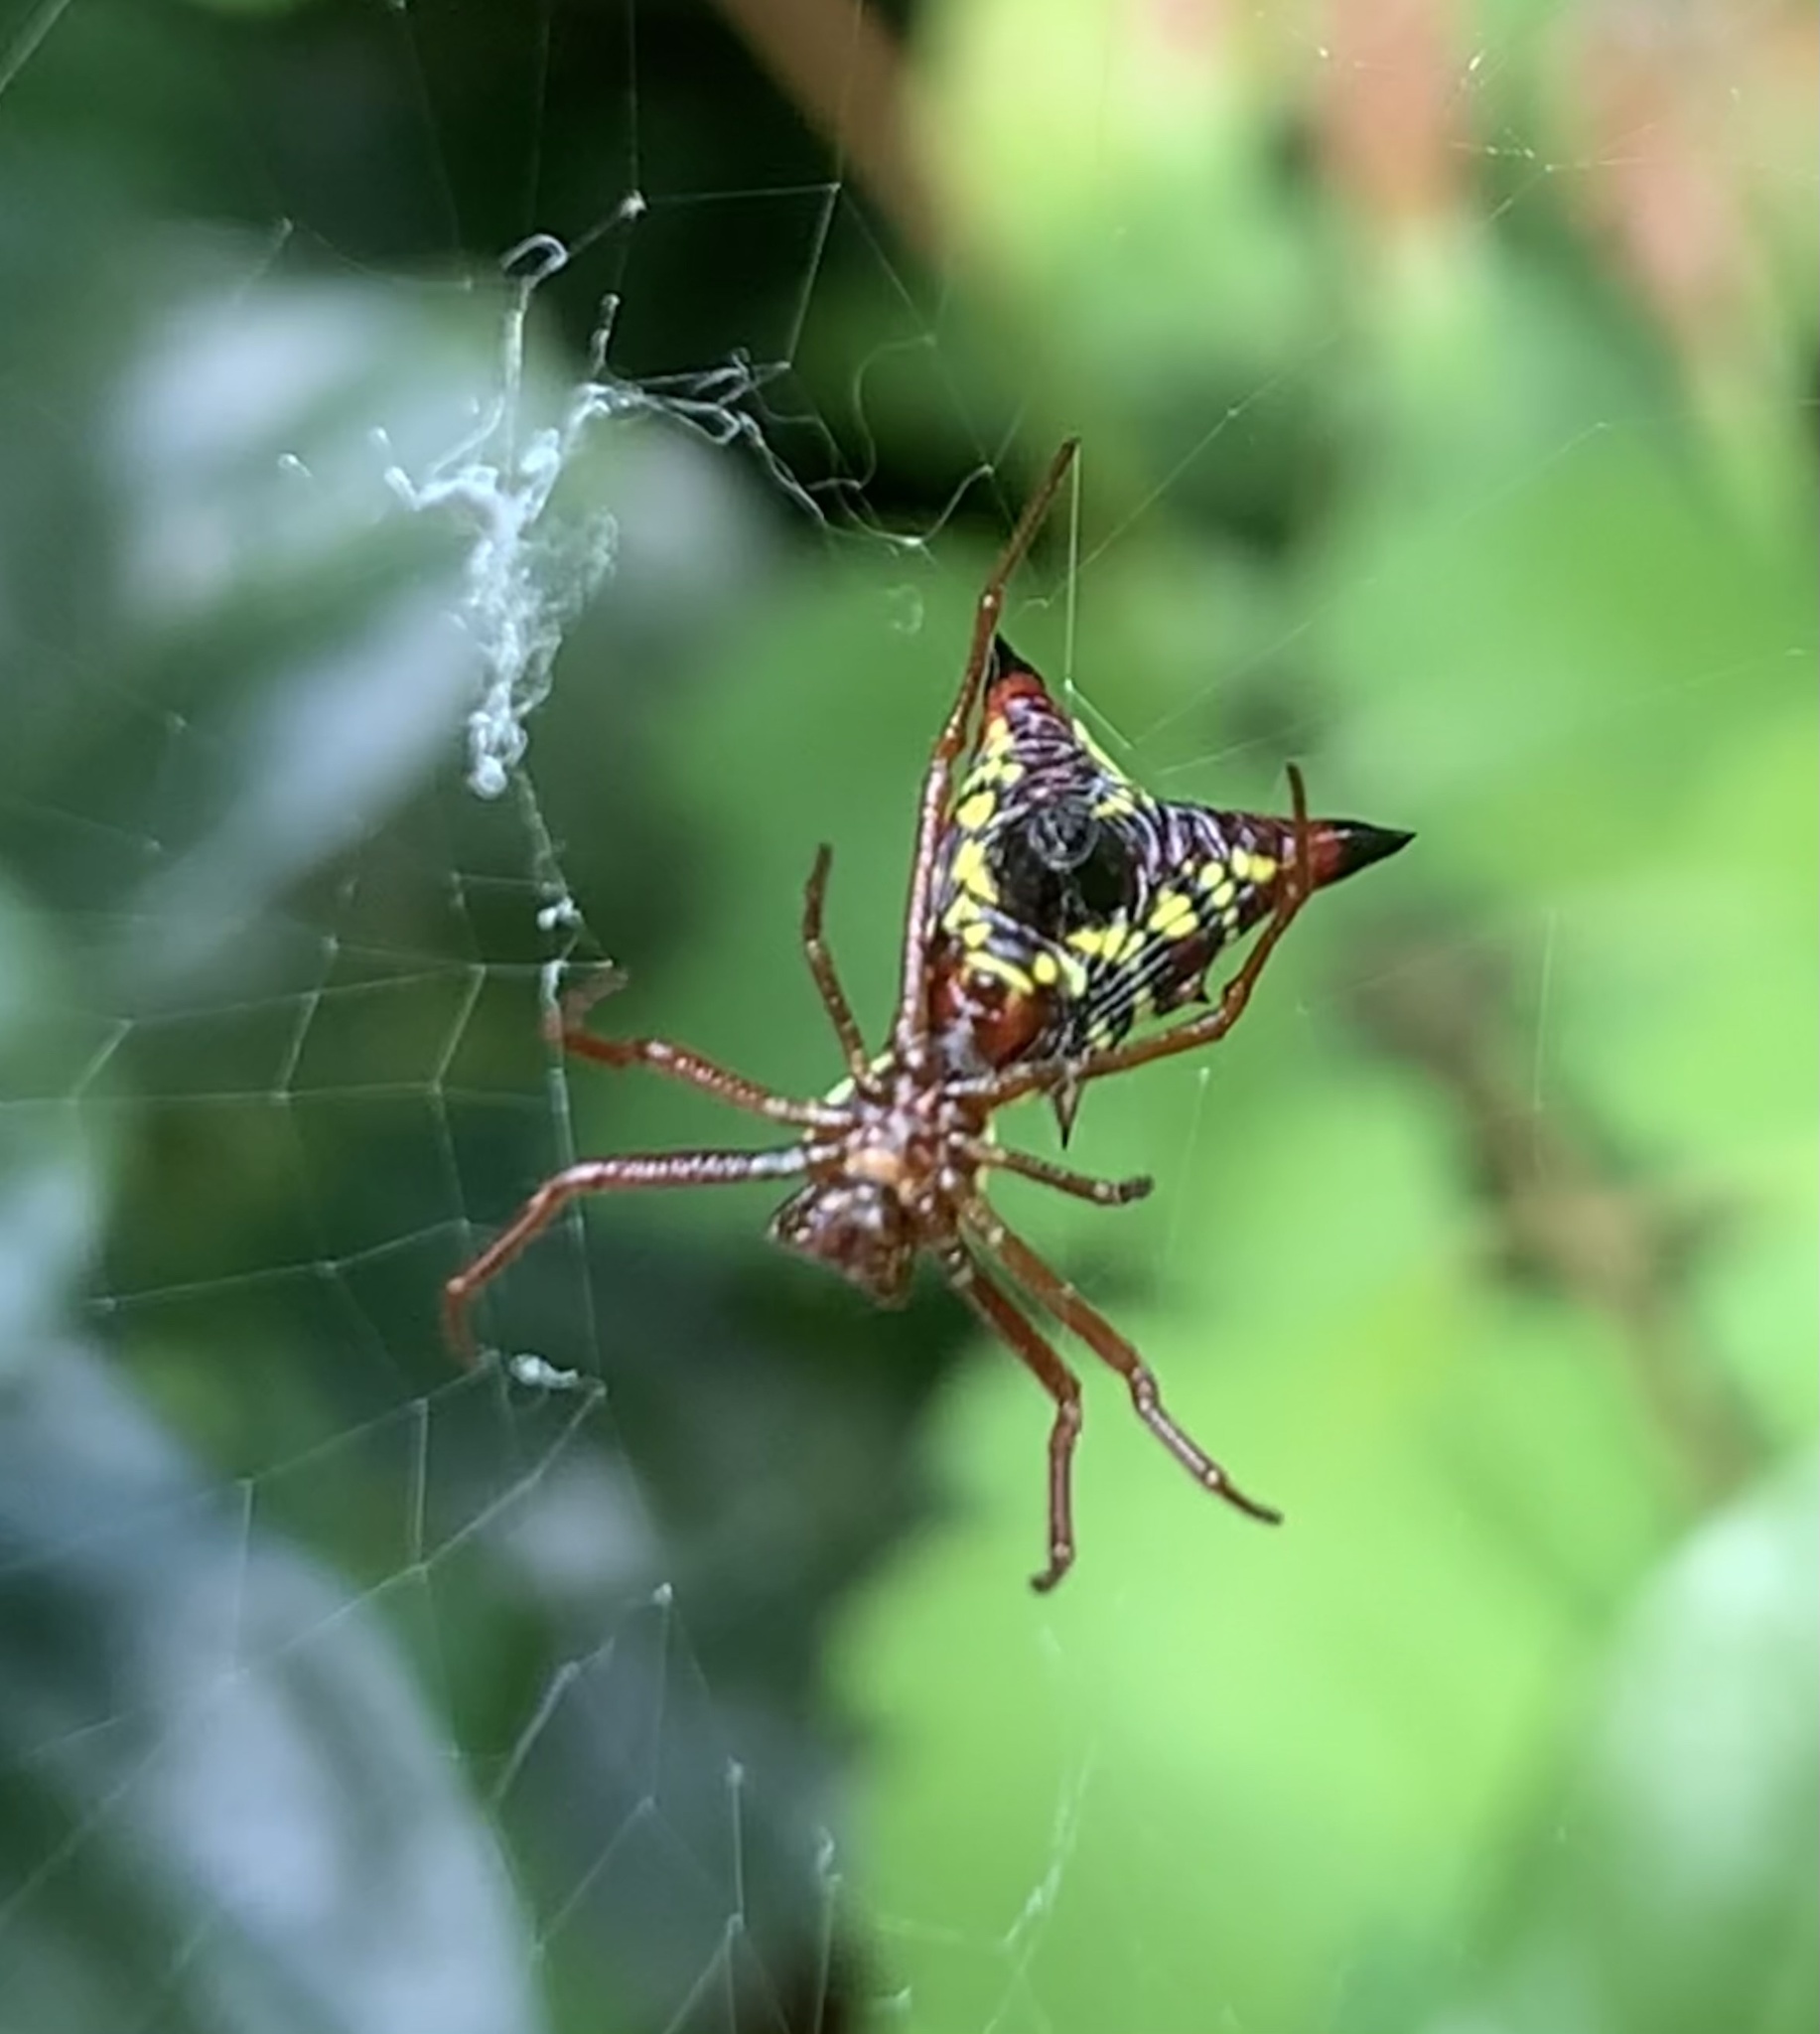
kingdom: Animalia
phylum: Arthropoda
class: Arachnida
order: Araneae
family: Araneidae
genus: Micrathena
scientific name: Micrathena sagittata
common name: Orb weavers
